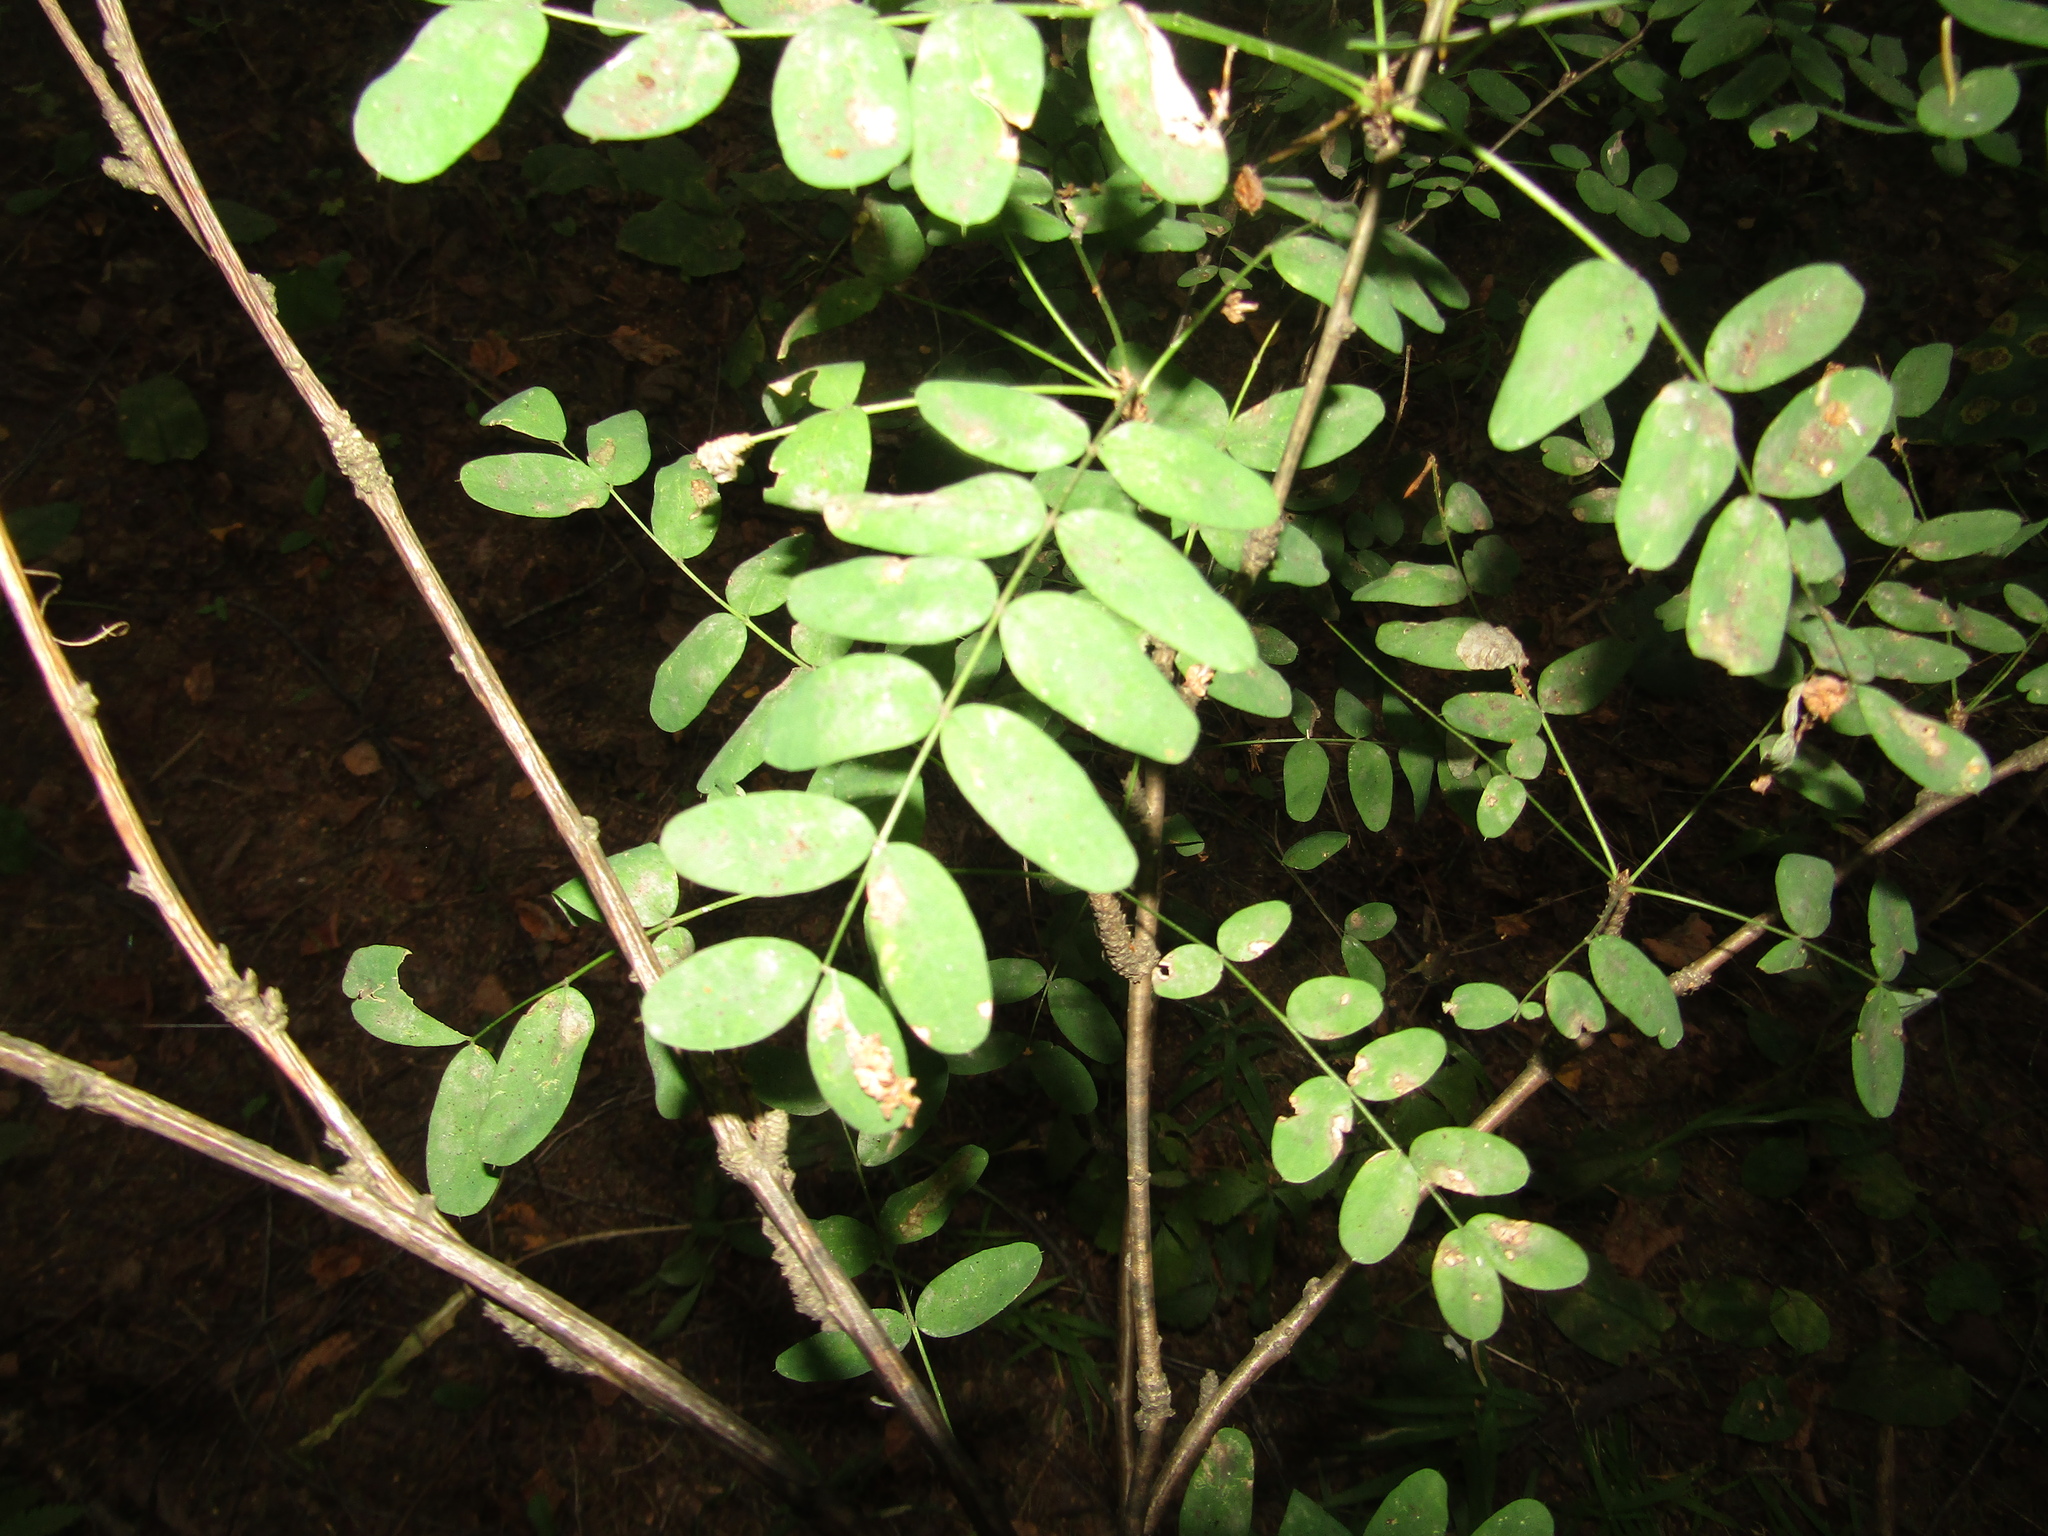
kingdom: Plantae
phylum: Tracheophyta
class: Magnoliopsida
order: Fabales
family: Fabaceae
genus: Caragana
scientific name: Caragana arborescens
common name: Siberian peashrub
